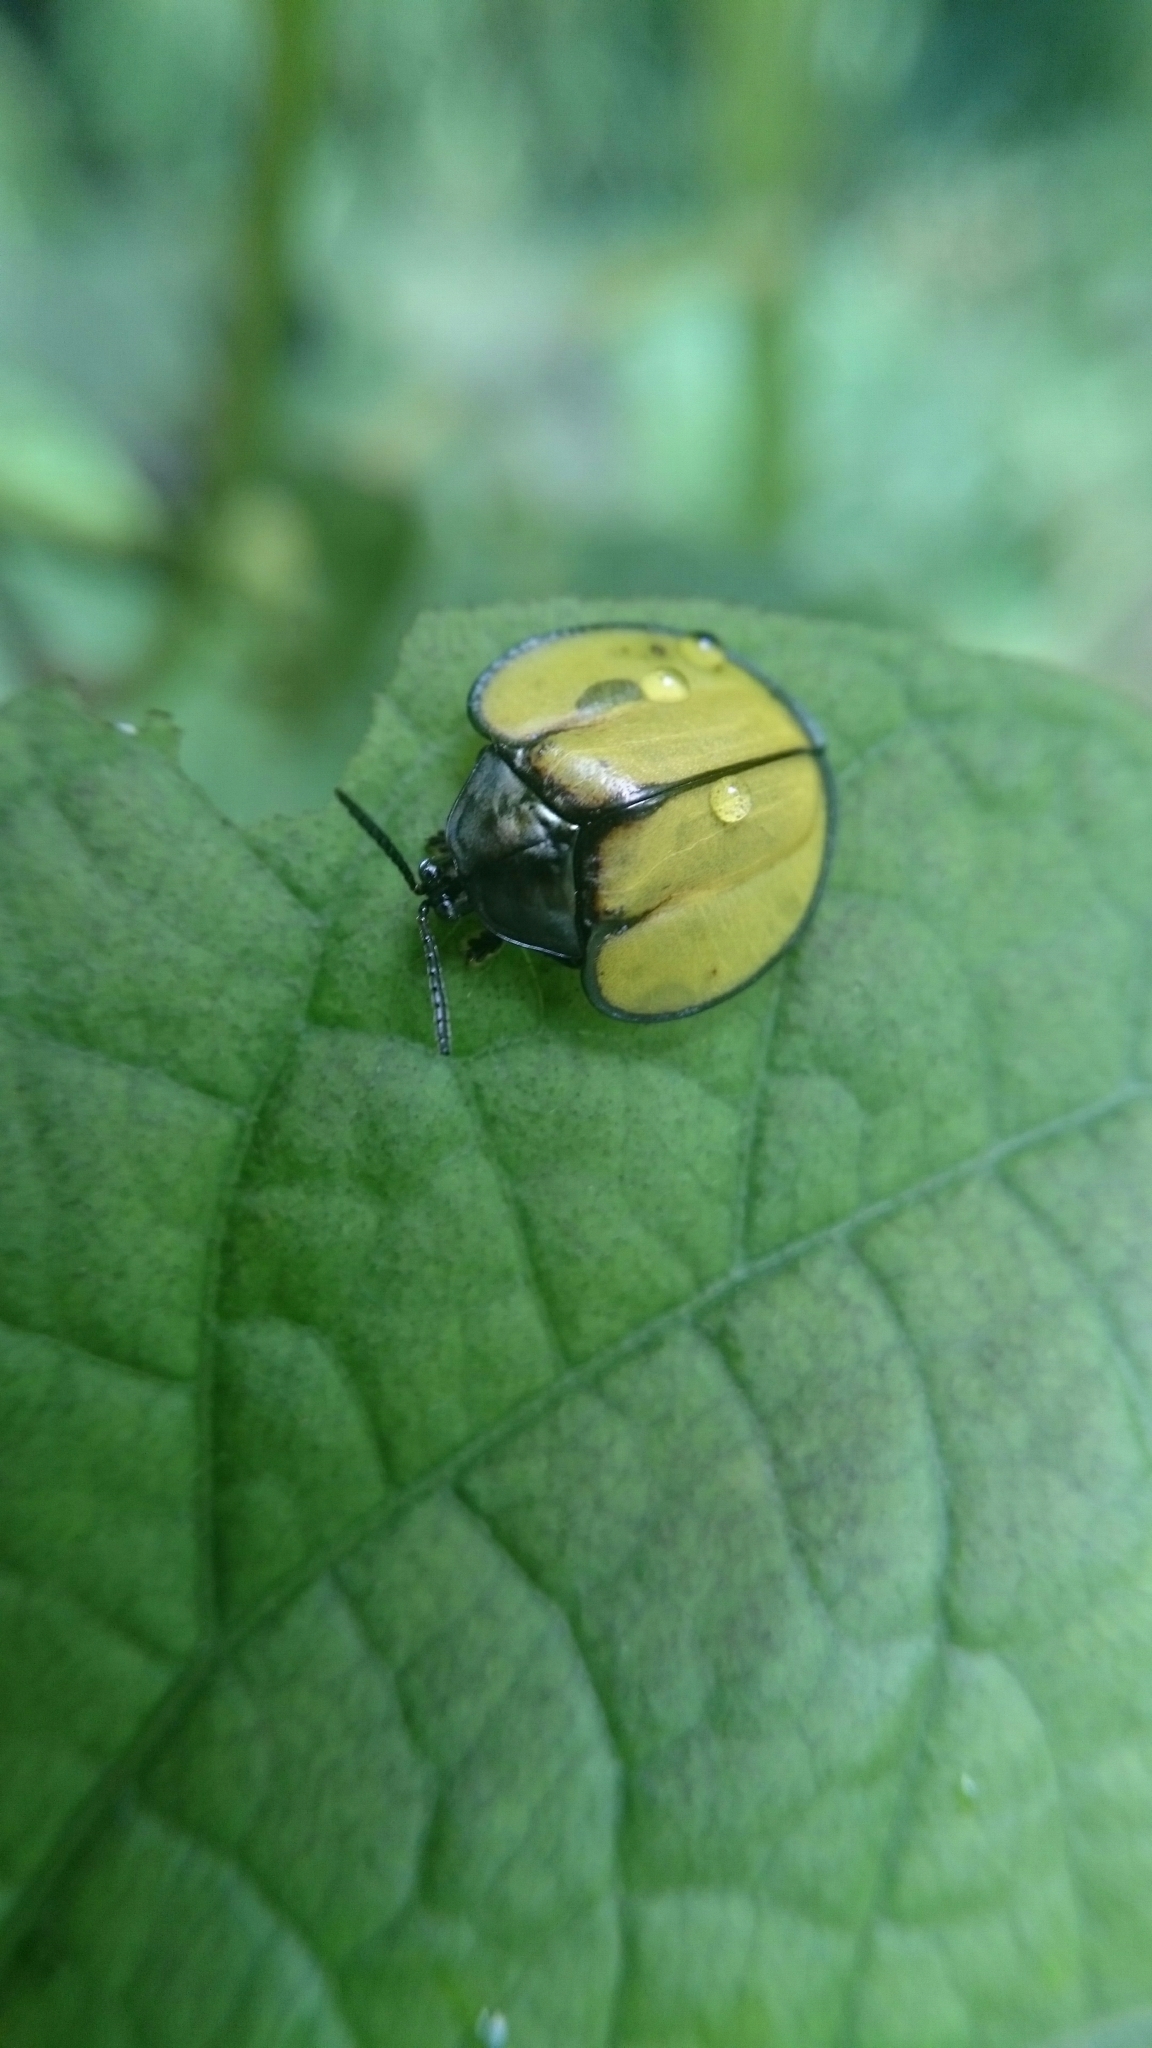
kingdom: Animalia
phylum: Arthropoda
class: Insecta
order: Coleoptera
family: Chrysomelidae
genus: Omaspides
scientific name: Omaspides abbreviata
